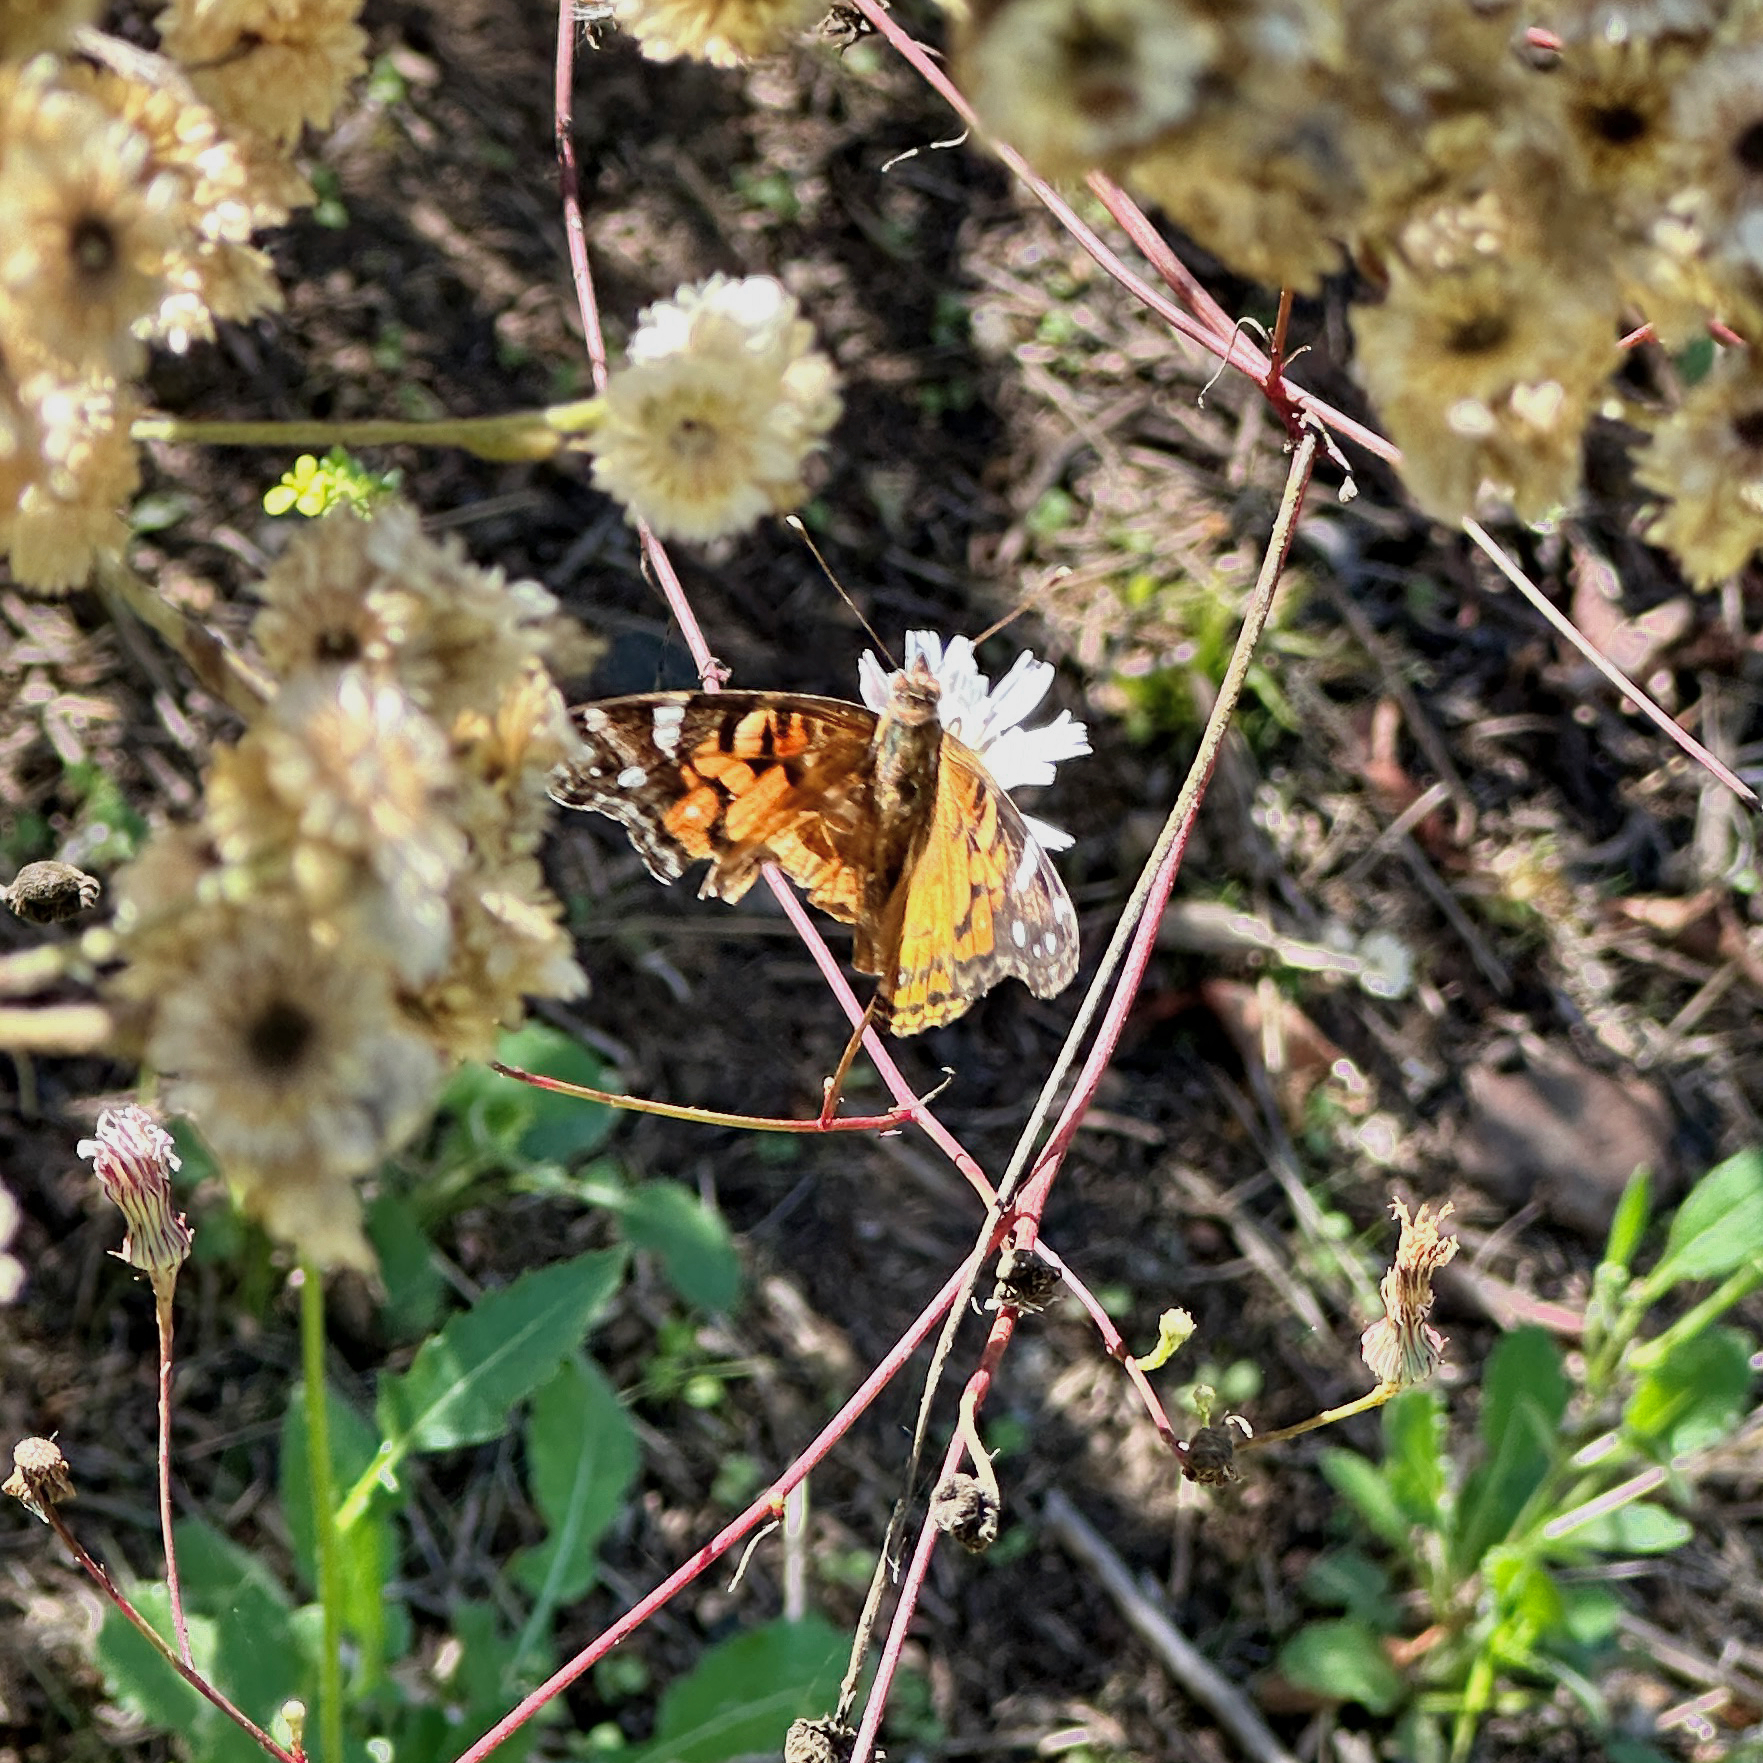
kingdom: Animalia
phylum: Arthropoda
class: Insecta
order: Lepidoptera
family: Nymphalidae
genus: Vanessa
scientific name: Vanessa virginiensis
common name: American lady
